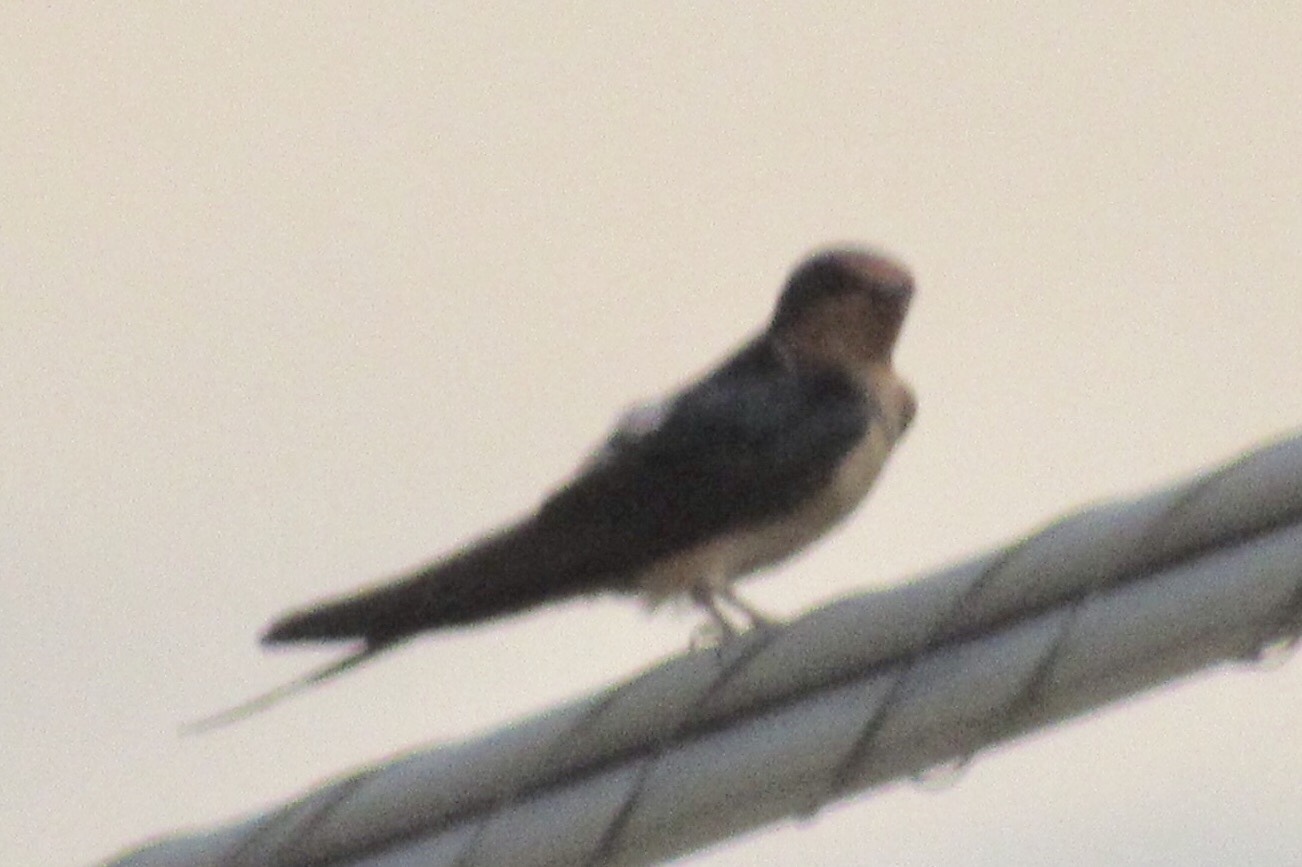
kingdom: Animalia
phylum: Chordata
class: Aves
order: Passeriformes
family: Hirundinidae
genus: Hirundo
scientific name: Hirundo rustica
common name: Barn swallow
